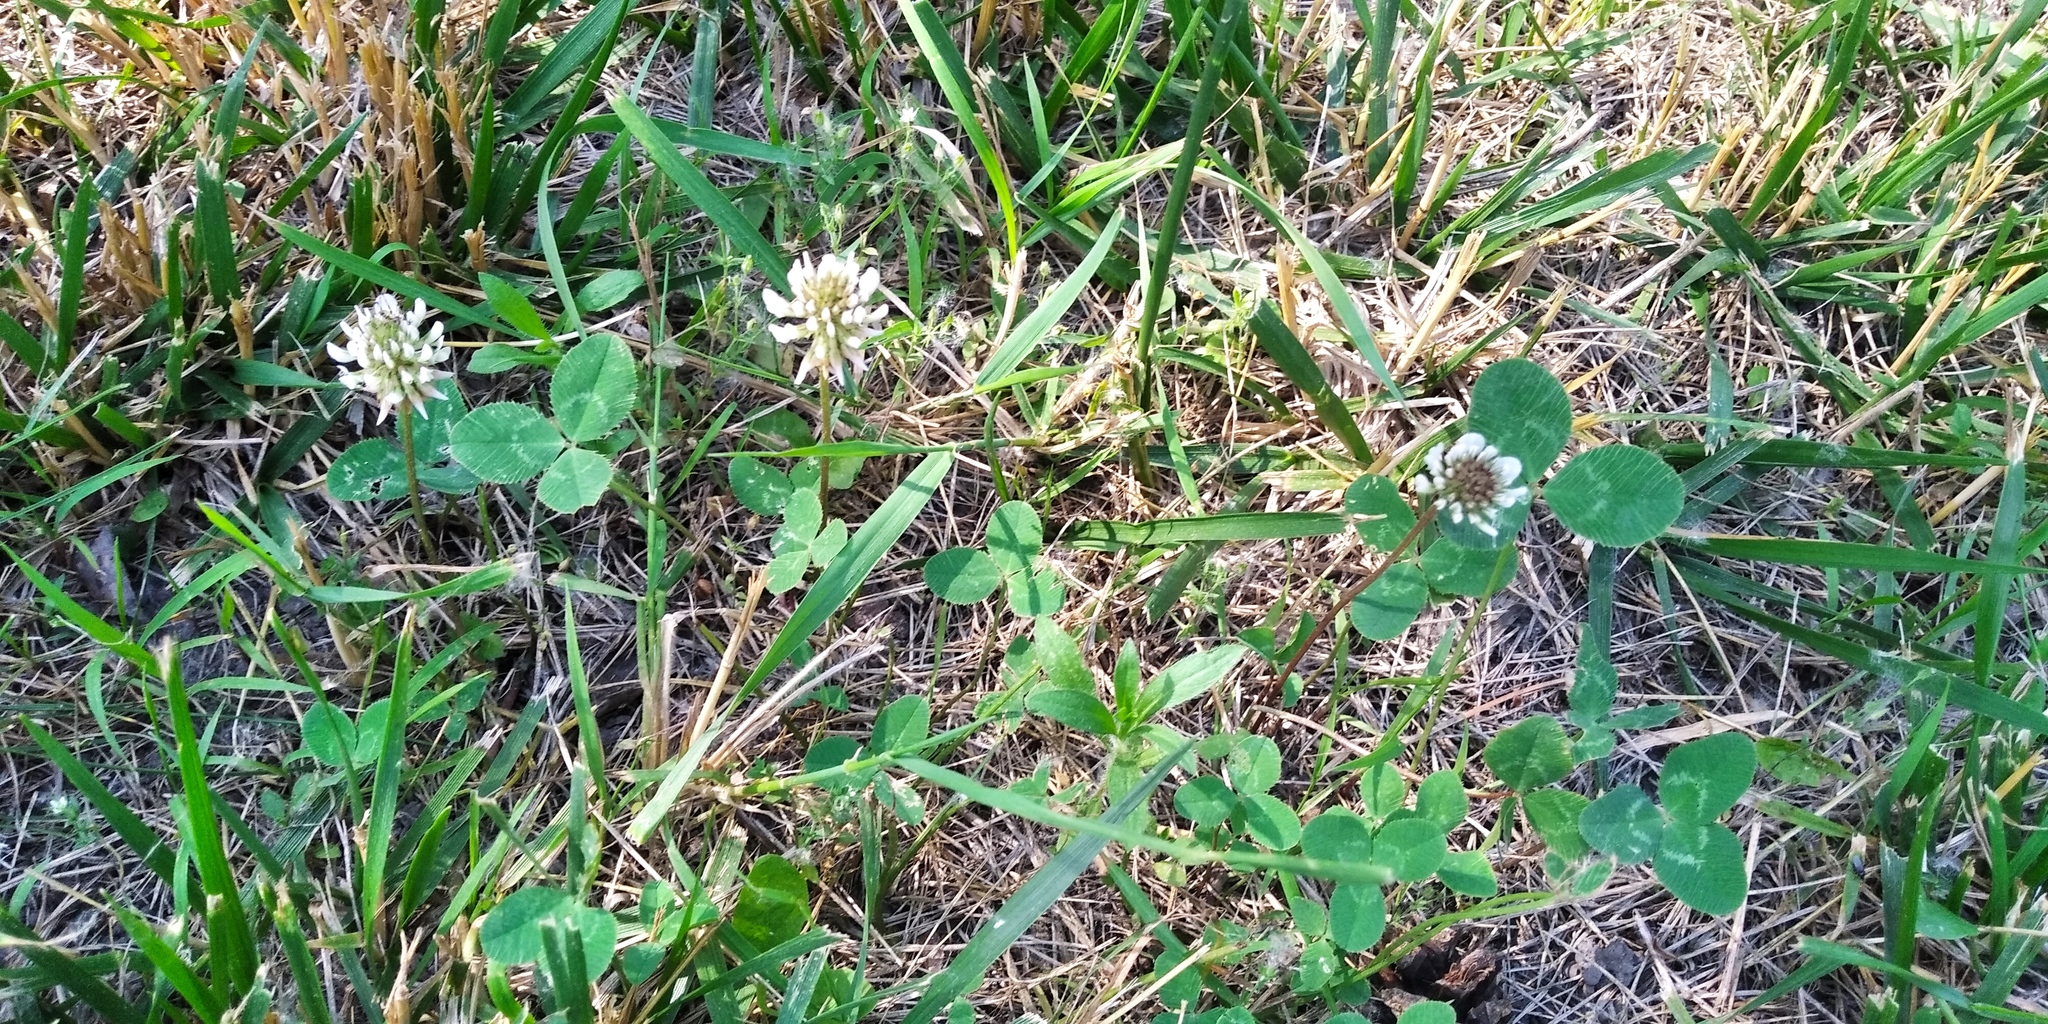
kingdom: Plantae
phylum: Tracheophyta
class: Magnoliopsida
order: Fabales
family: Fabaceae
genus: Trifolium
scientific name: Trifolium repens
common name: White clover
